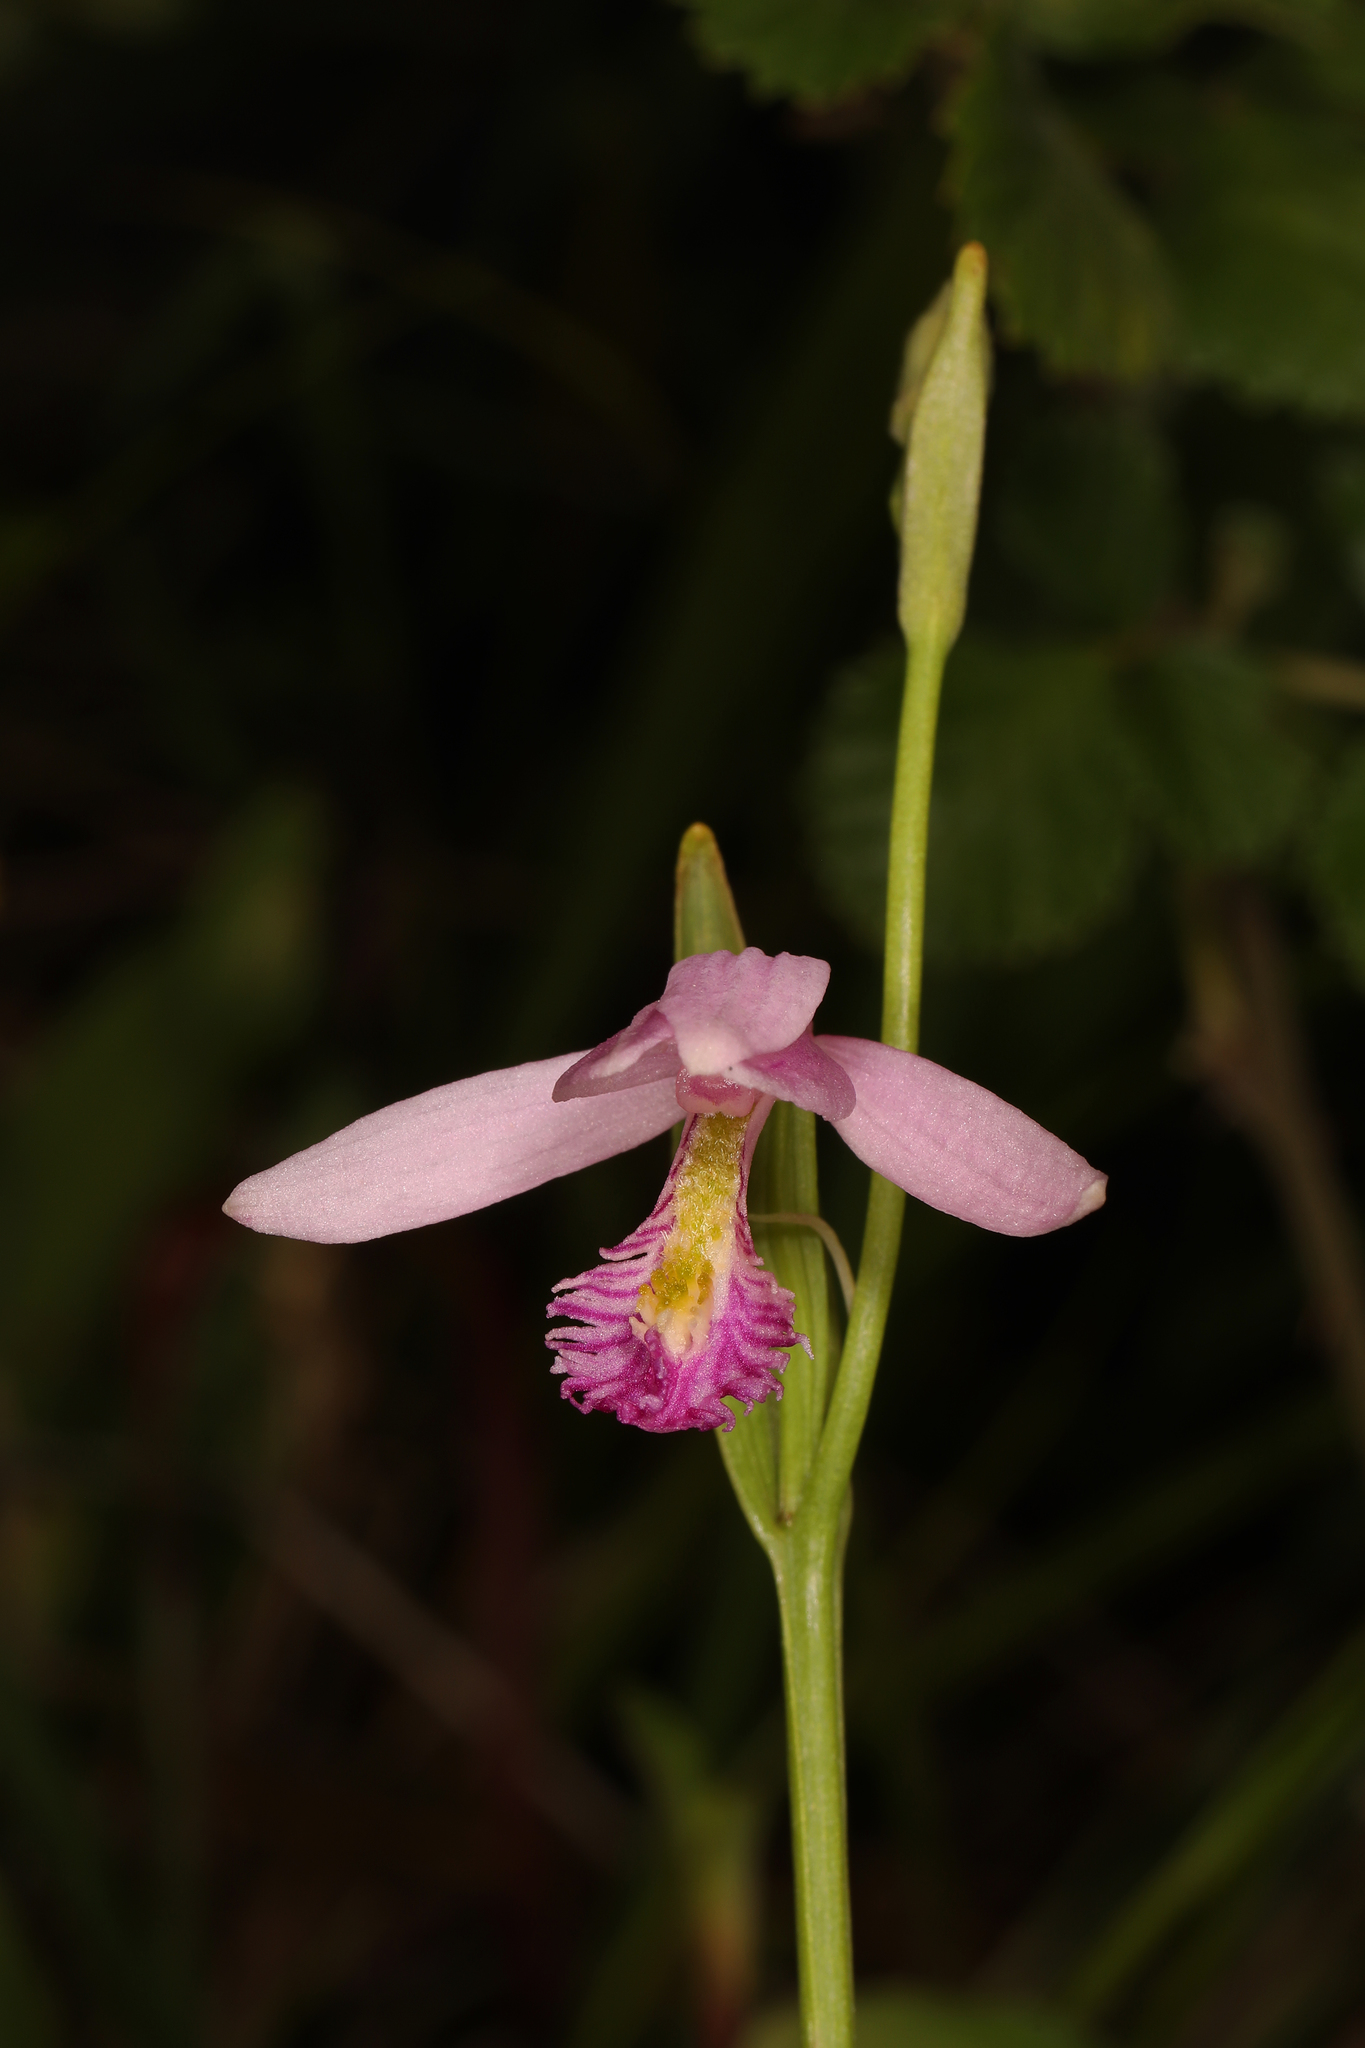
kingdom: Plantae
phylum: Tracheophyta
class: Liliopsida
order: Asparagales
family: Orchidaceae
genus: Pogonia
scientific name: Pogonia ophioglossoides
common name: Rose pogonia
